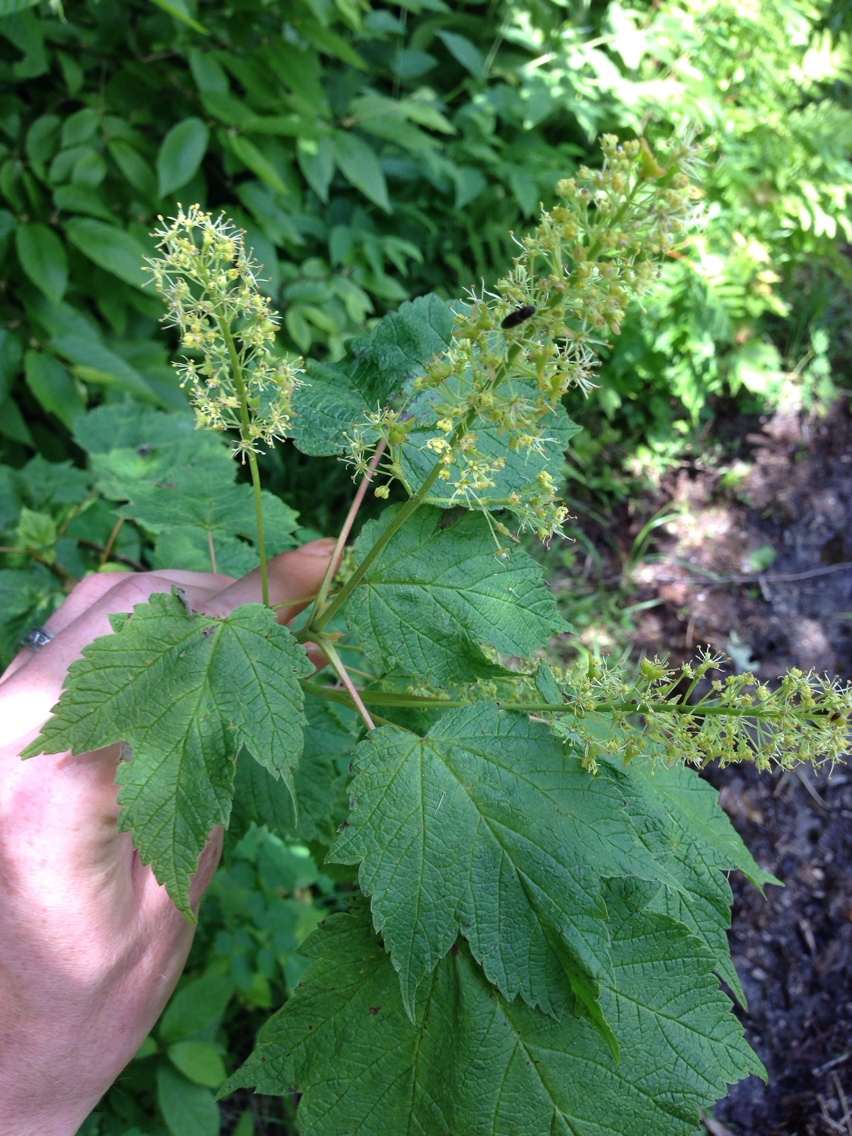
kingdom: Plantae
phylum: Tracheophyta
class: Magnoliopsida
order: Sapindales
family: Sapindaceae
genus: Acer
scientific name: Acer spicatum
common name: Mountain maple
